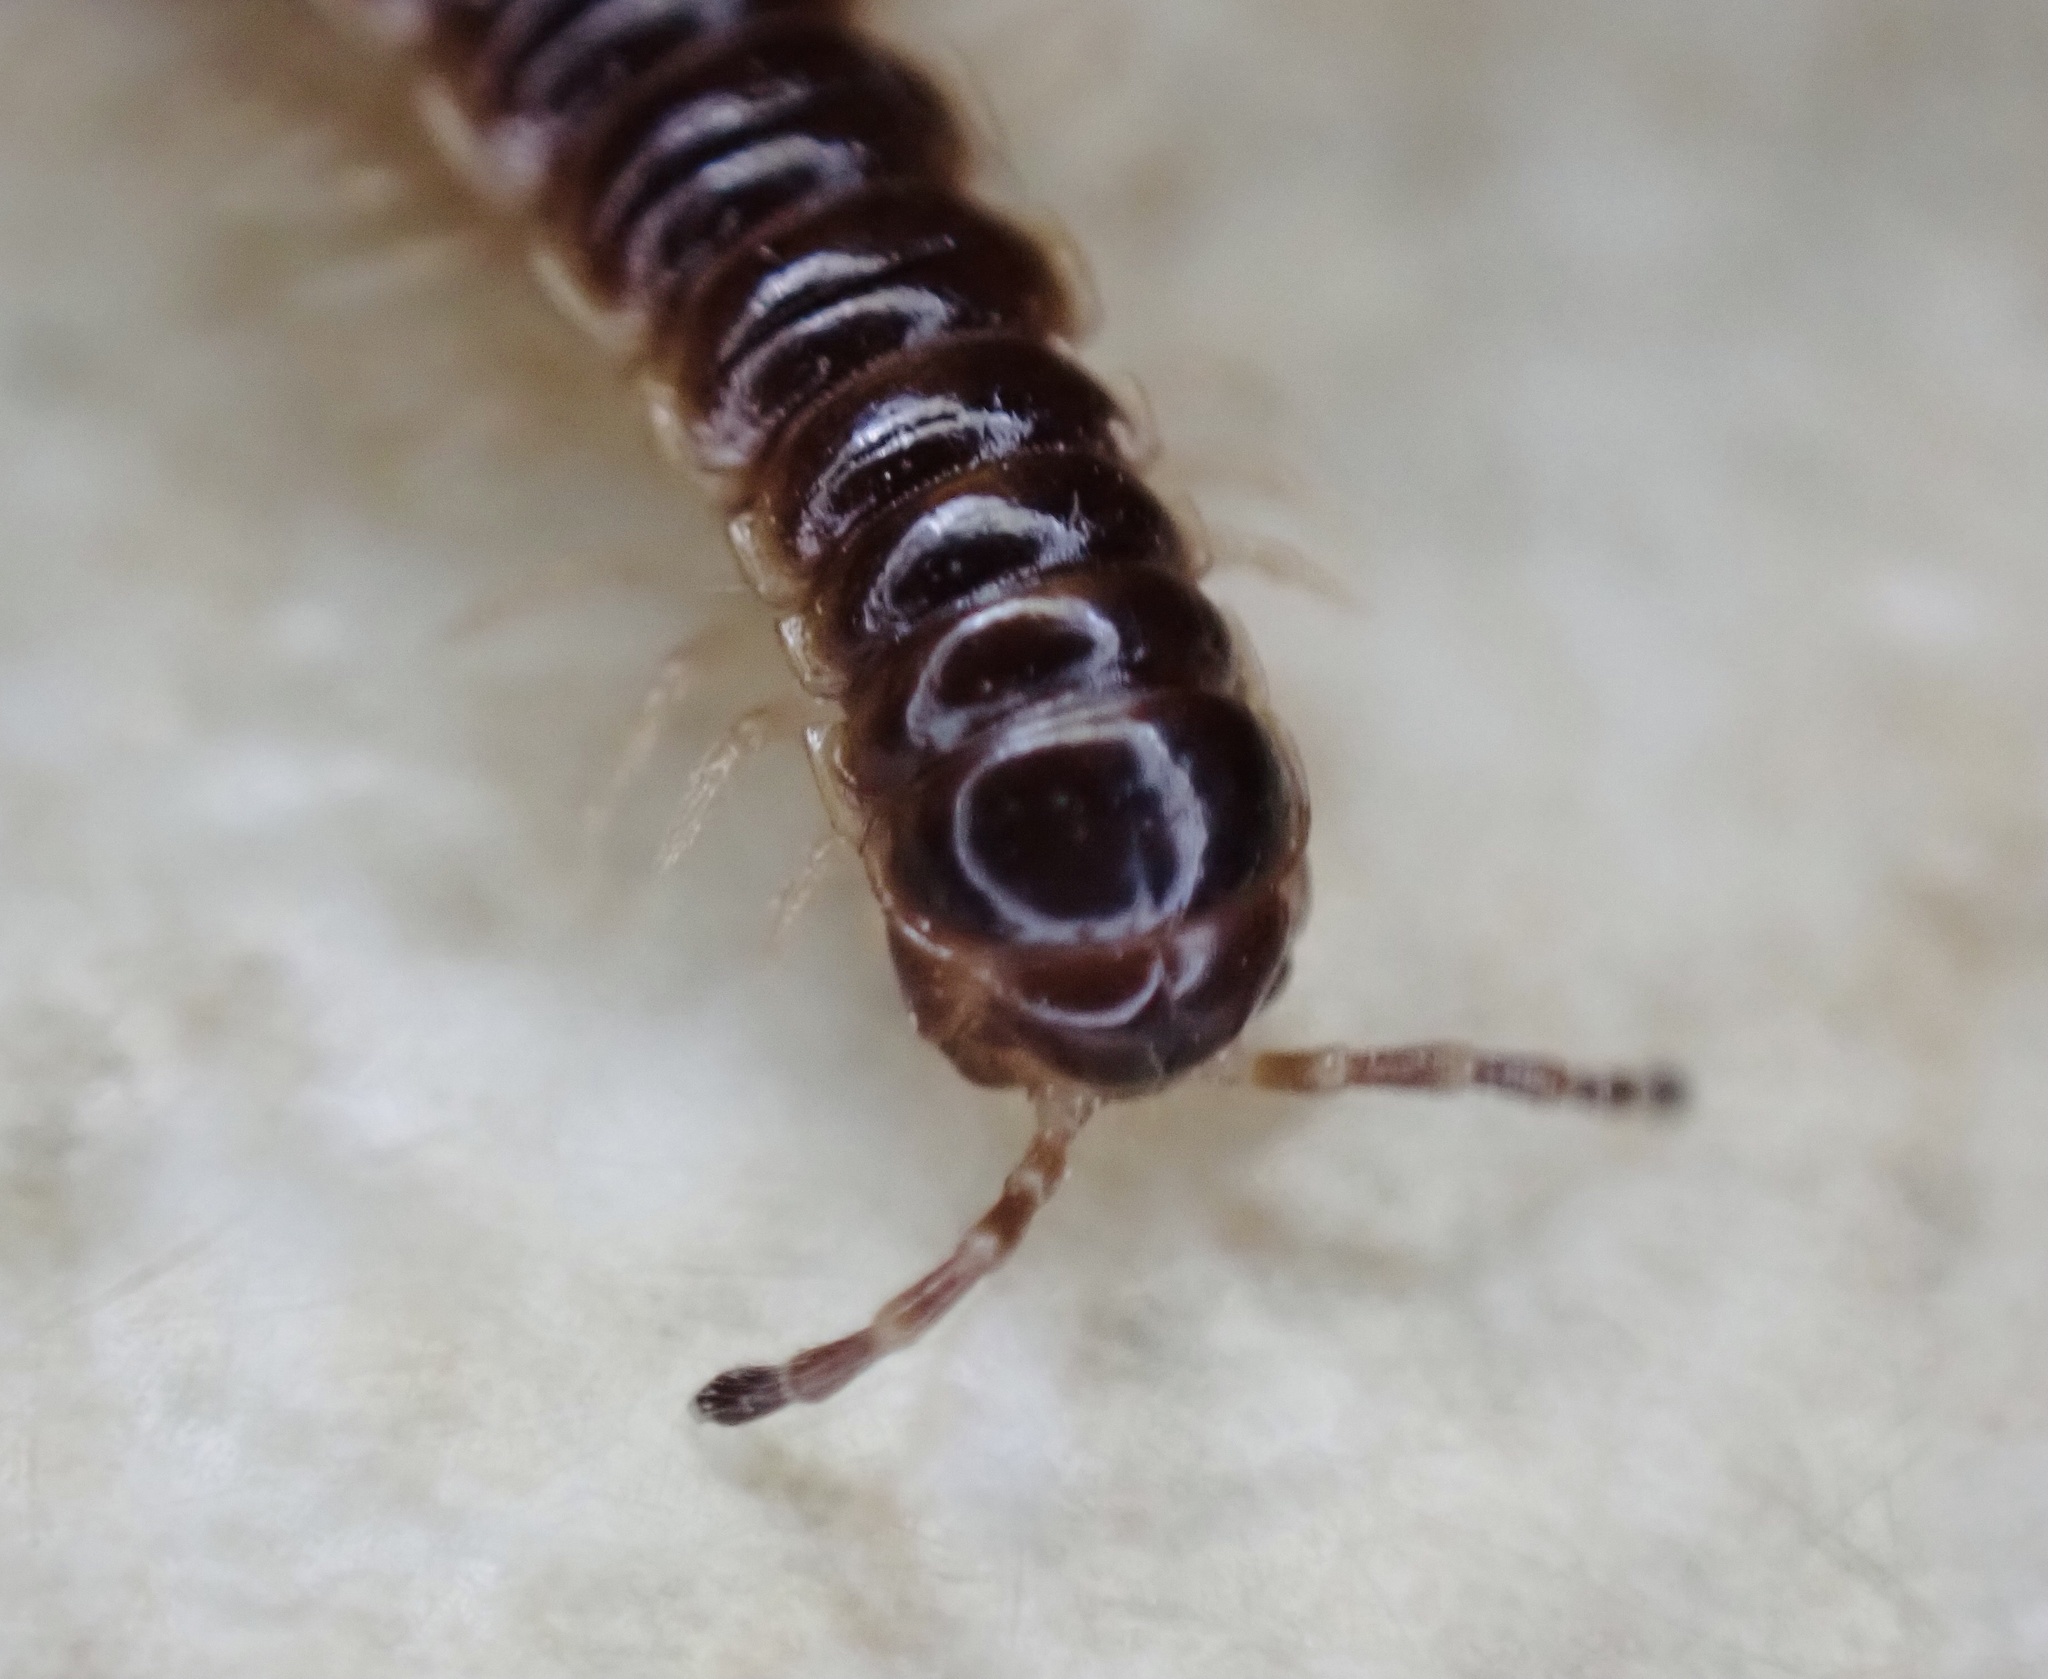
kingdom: Animalia
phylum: Arthropoda
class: Diplopoda
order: Polydesmida
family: Paradoxosomatidae
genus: Oxidus
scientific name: Oxidus gracilis
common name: Greenhouse millipede
